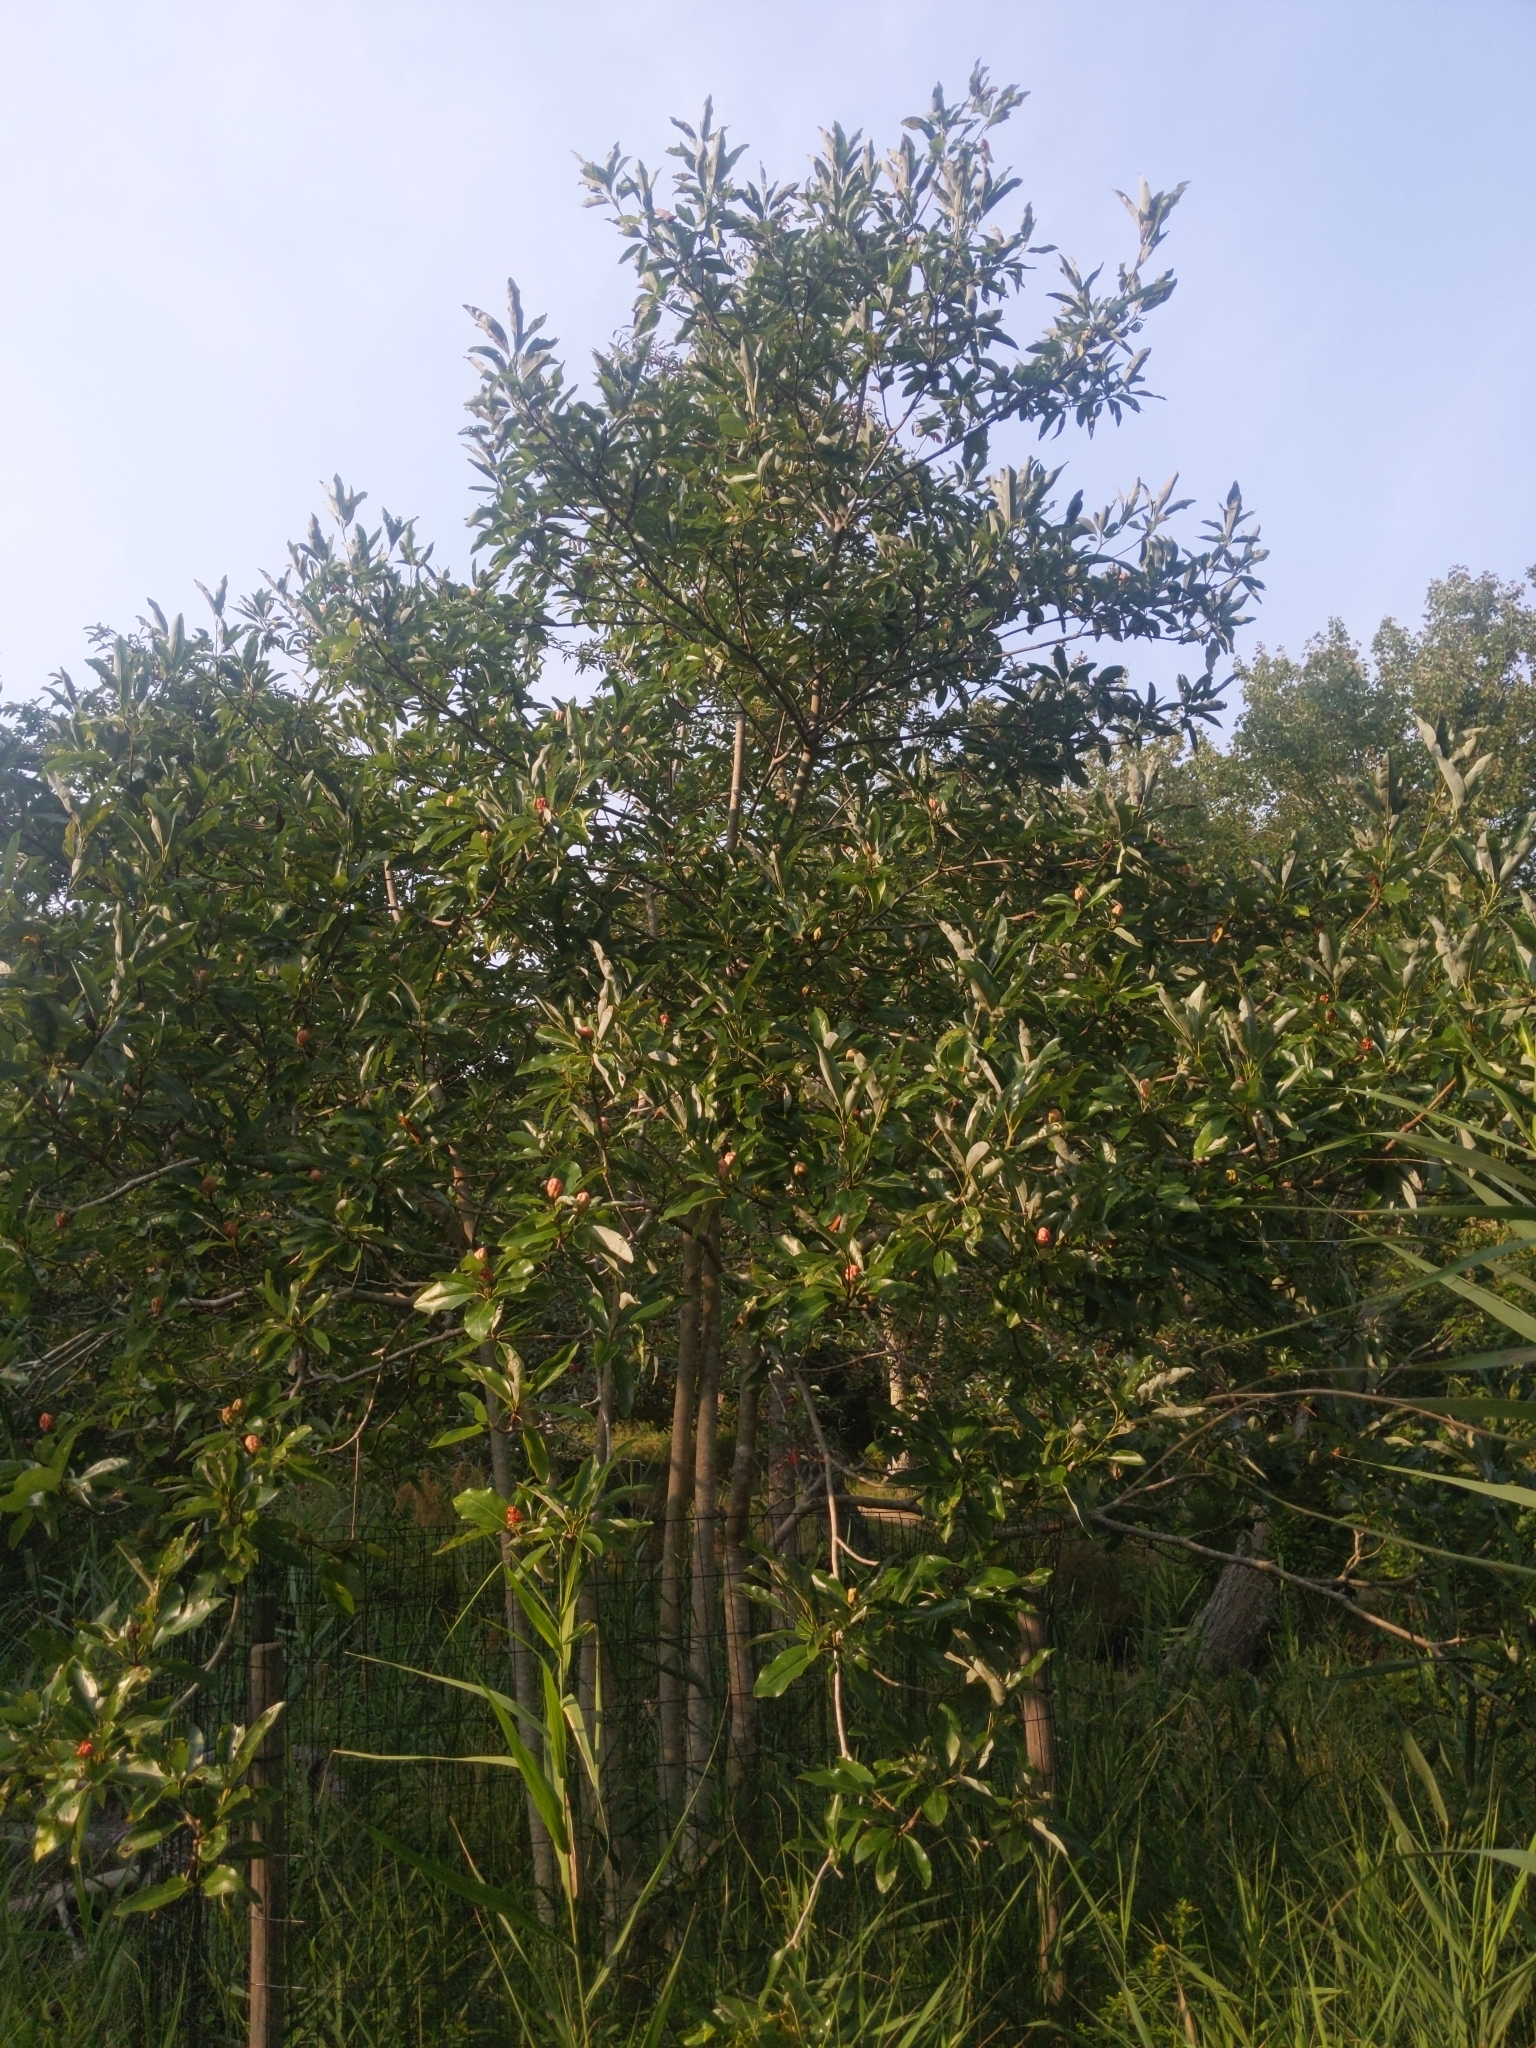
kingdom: Plantae
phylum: Tracheophyta
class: Magnoliopsida
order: Magnoliales
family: Magnoliaceae
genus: Magnolia
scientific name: Magnolia virginiana
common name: Swamp bay
